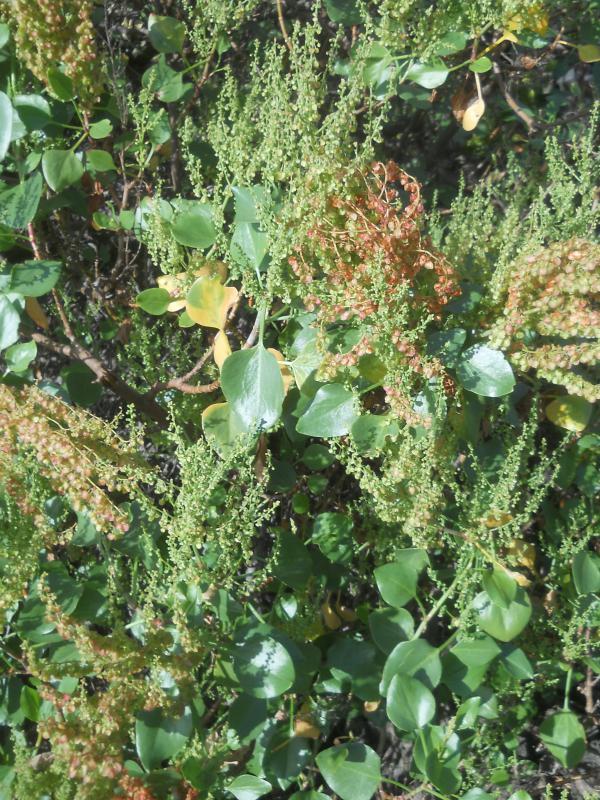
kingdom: Plantae
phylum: Tracheophyta
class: Magnoliopsida
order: Caryophyllales
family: Polygonaceae
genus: Rumex
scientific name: Rumex lunaria
